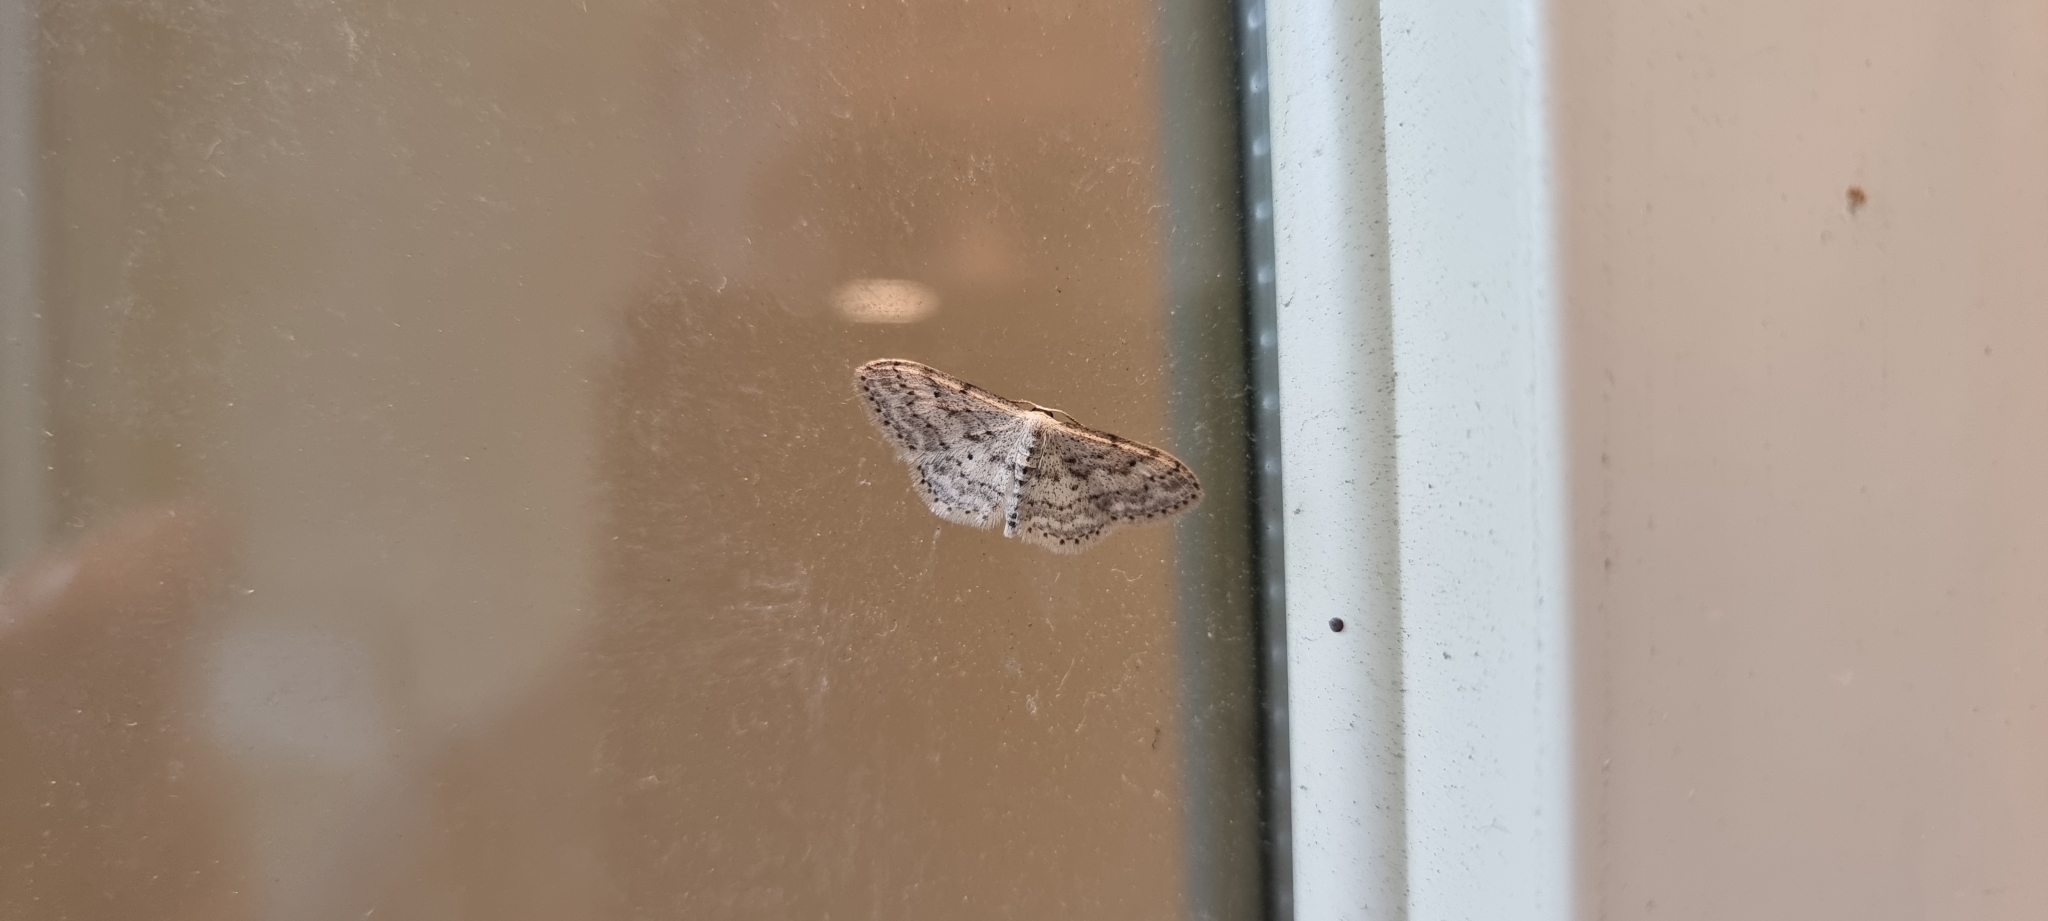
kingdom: Animalia
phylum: Arthropoda
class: Insecta
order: Lepidoptera
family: Geometridae
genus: Idaea
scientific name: Idaea seriata
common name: Small dusty wave
